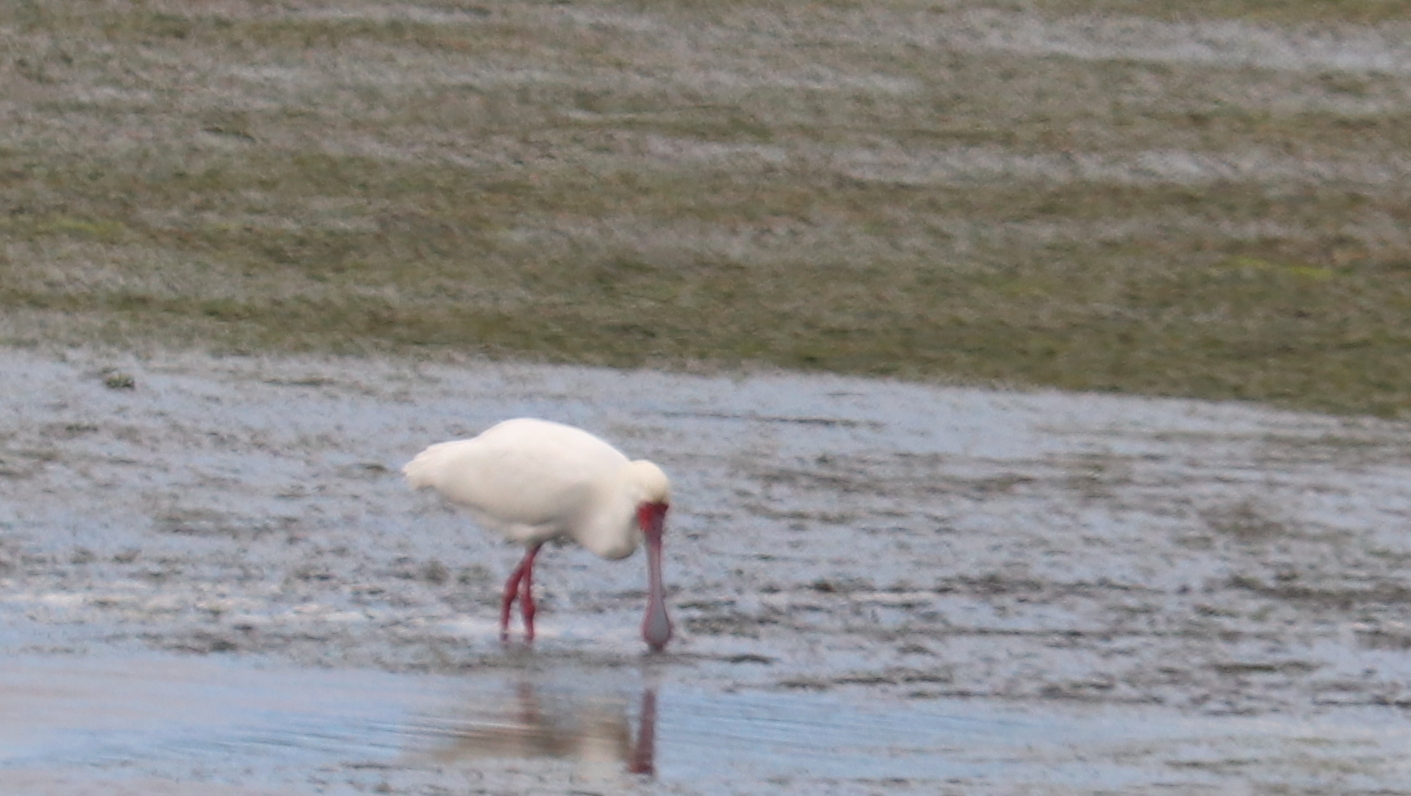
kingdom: Animalia
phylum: Chordata
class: Aves
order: Pelecaniformes
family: Threskiornithidae
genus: Platalea
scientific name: Platalea alba
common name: African spoonbill
